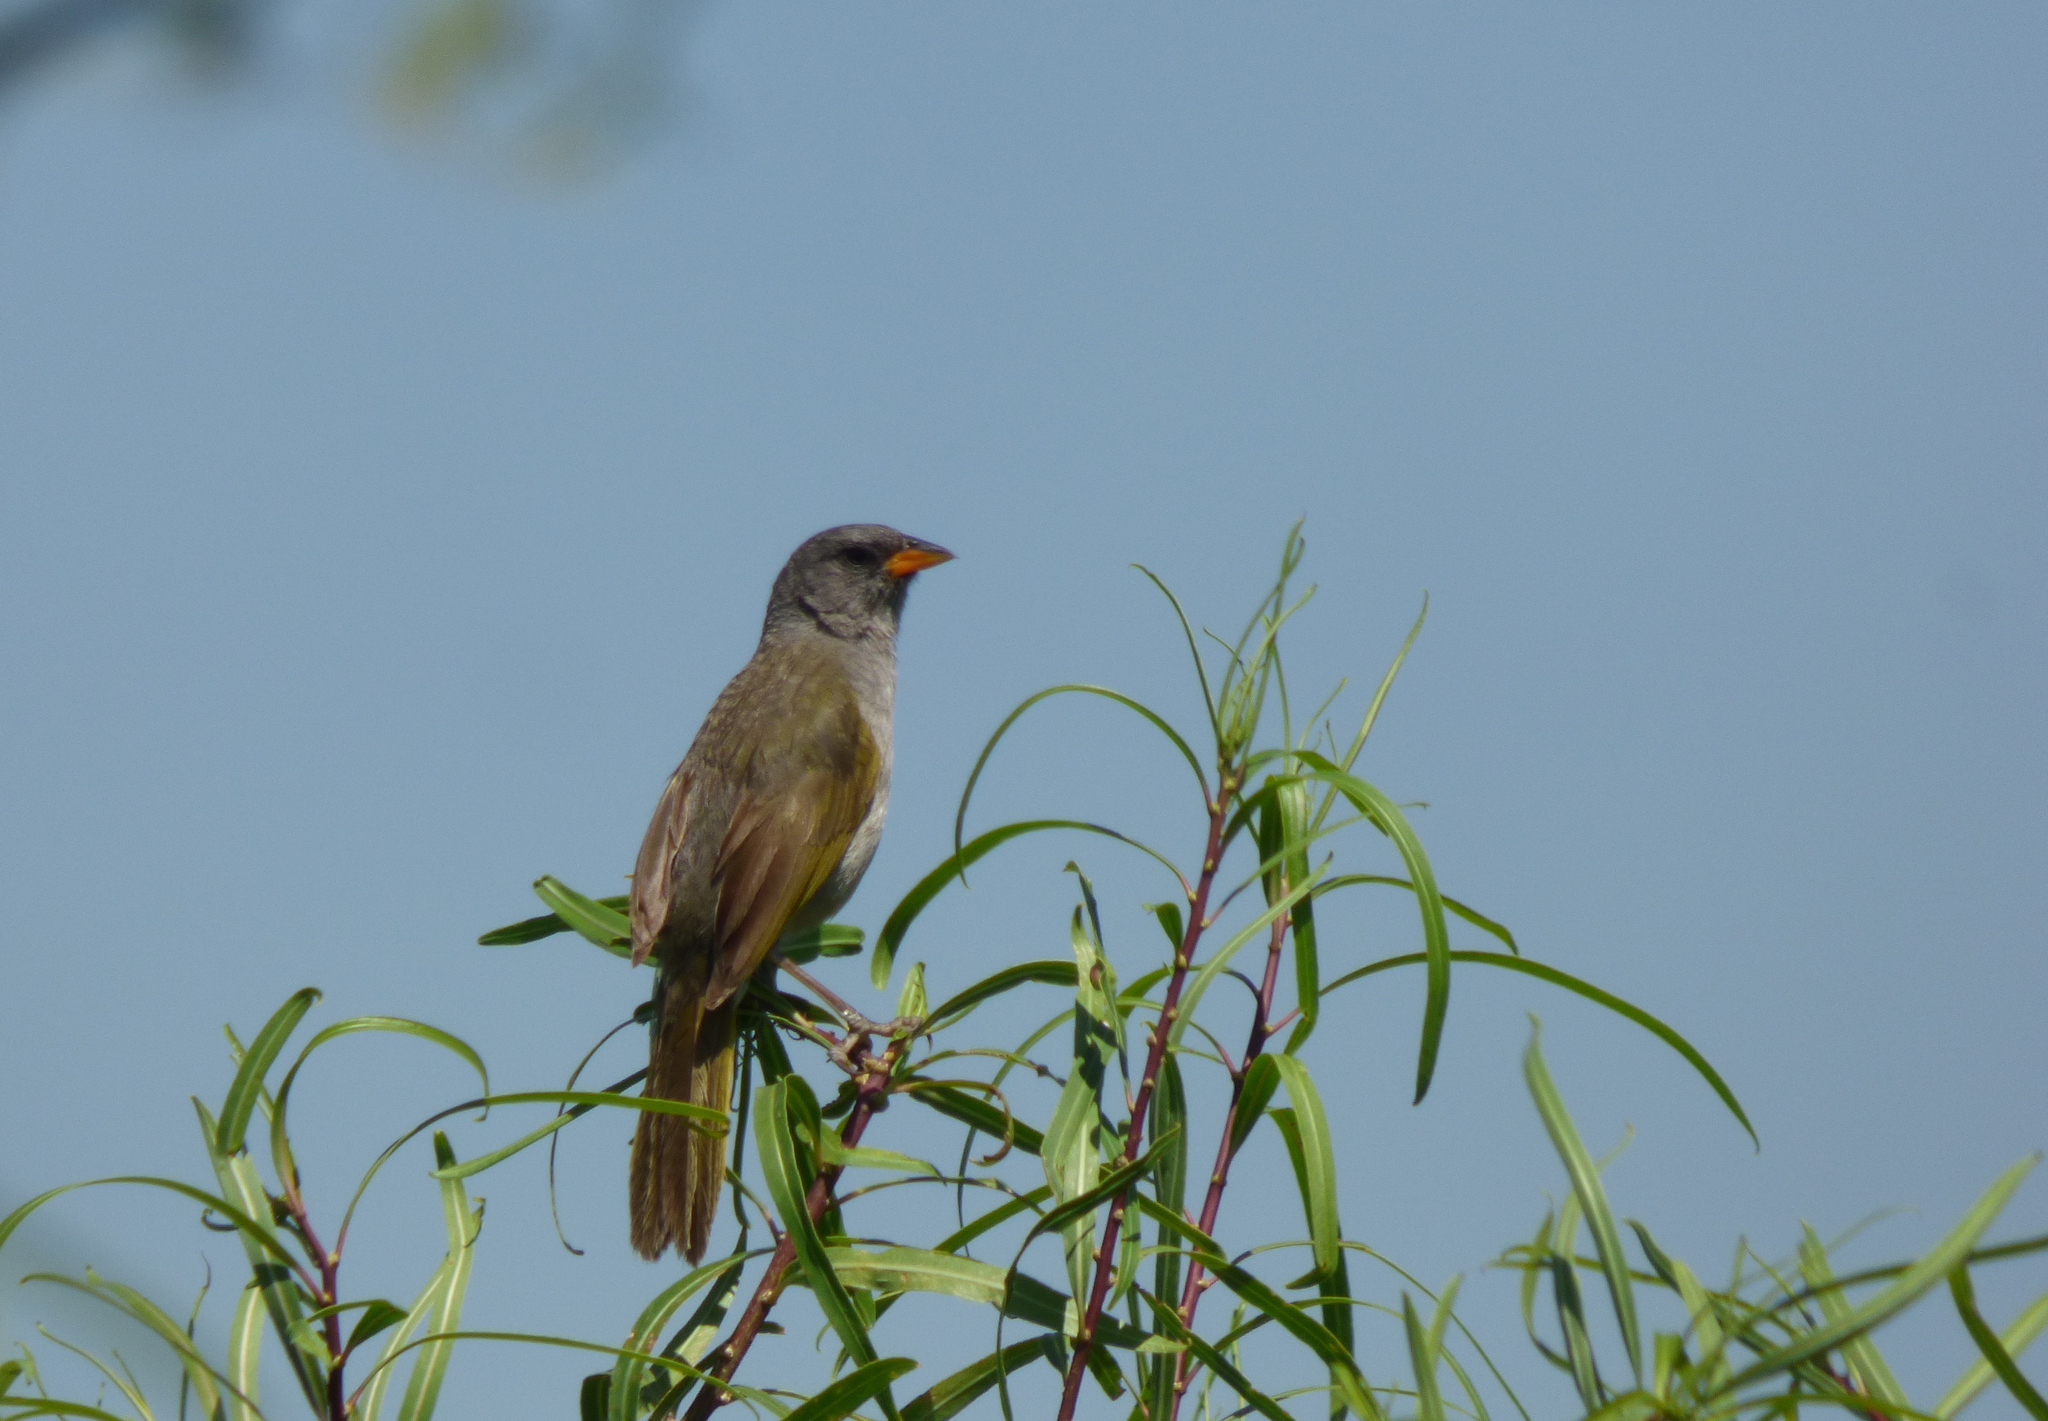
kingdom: Animalia
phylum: Chordata
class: Aves
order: Passeriformes
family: Thraupidae
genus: Embernagra
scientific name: Embernagra platensis
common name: Pampa finch
